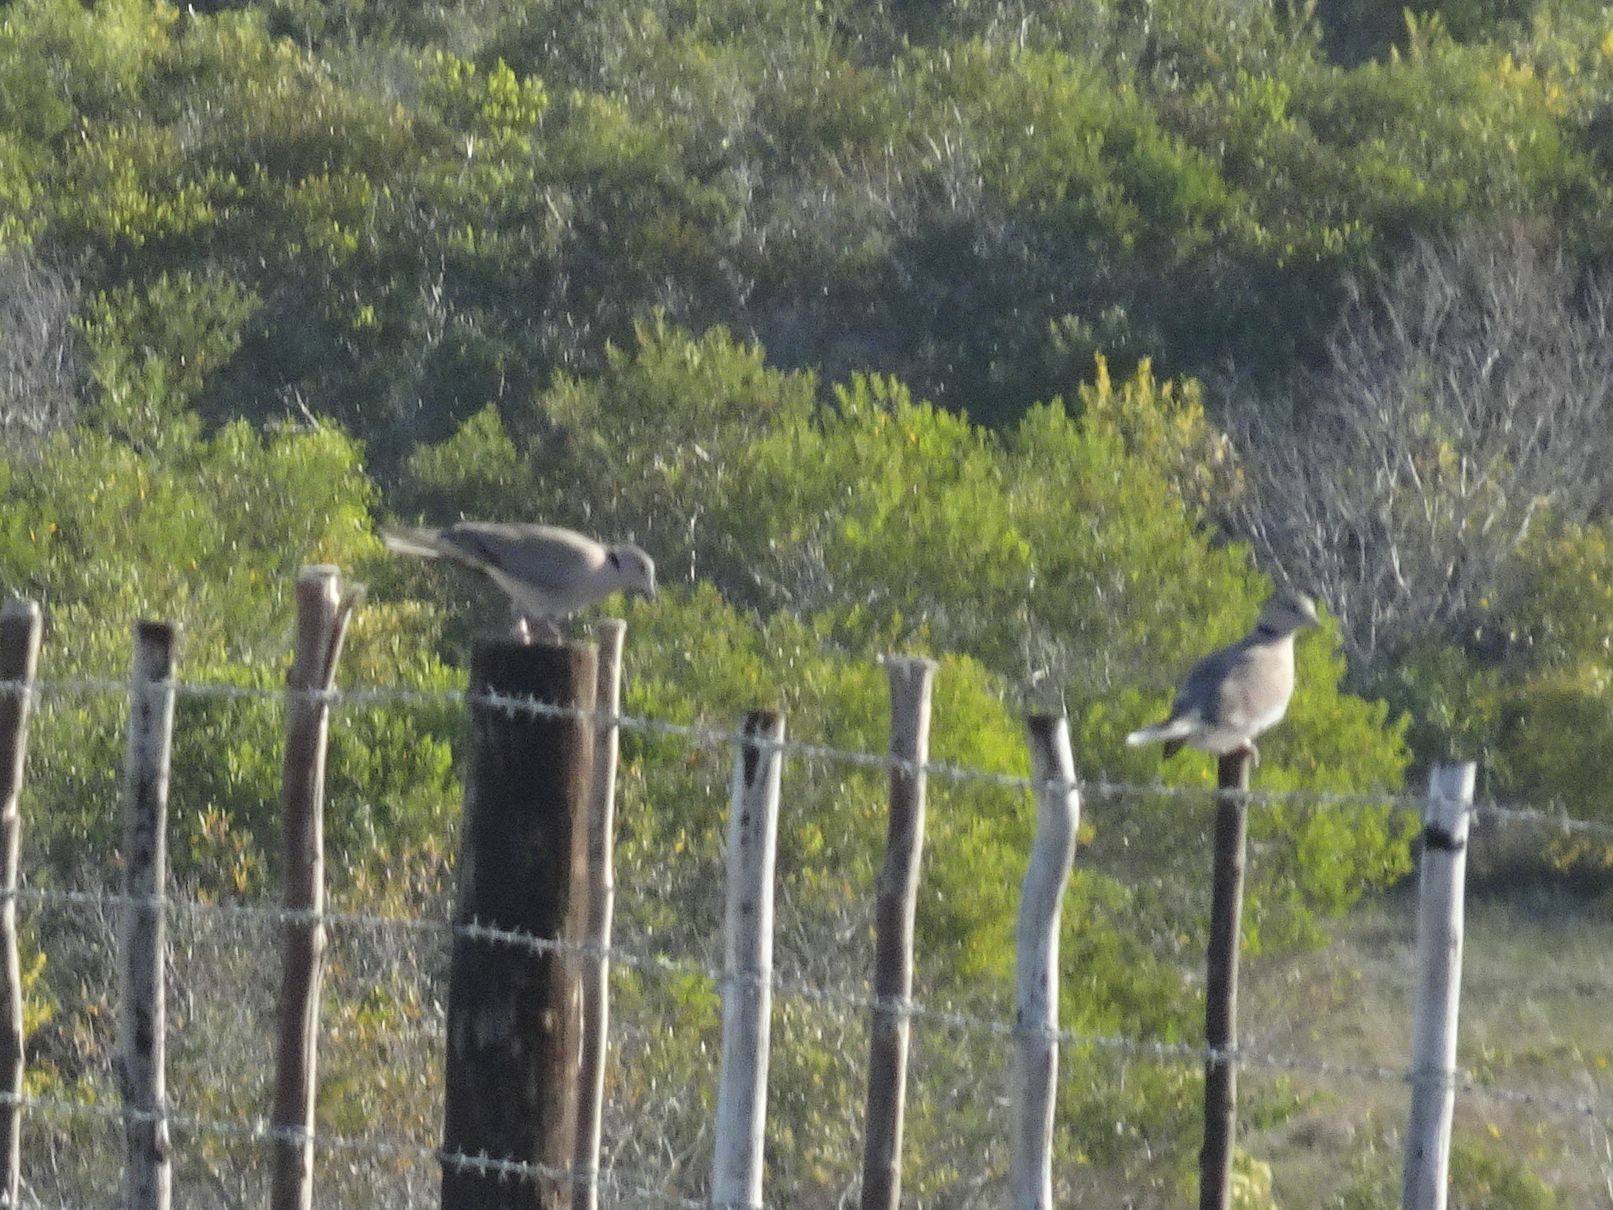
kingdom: Animalia
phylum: Chordata
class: Aves
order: Columbiformes
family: Columbidae
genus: Streptopelia
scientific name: Streptopelia capicola
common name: Ring-necked dove
